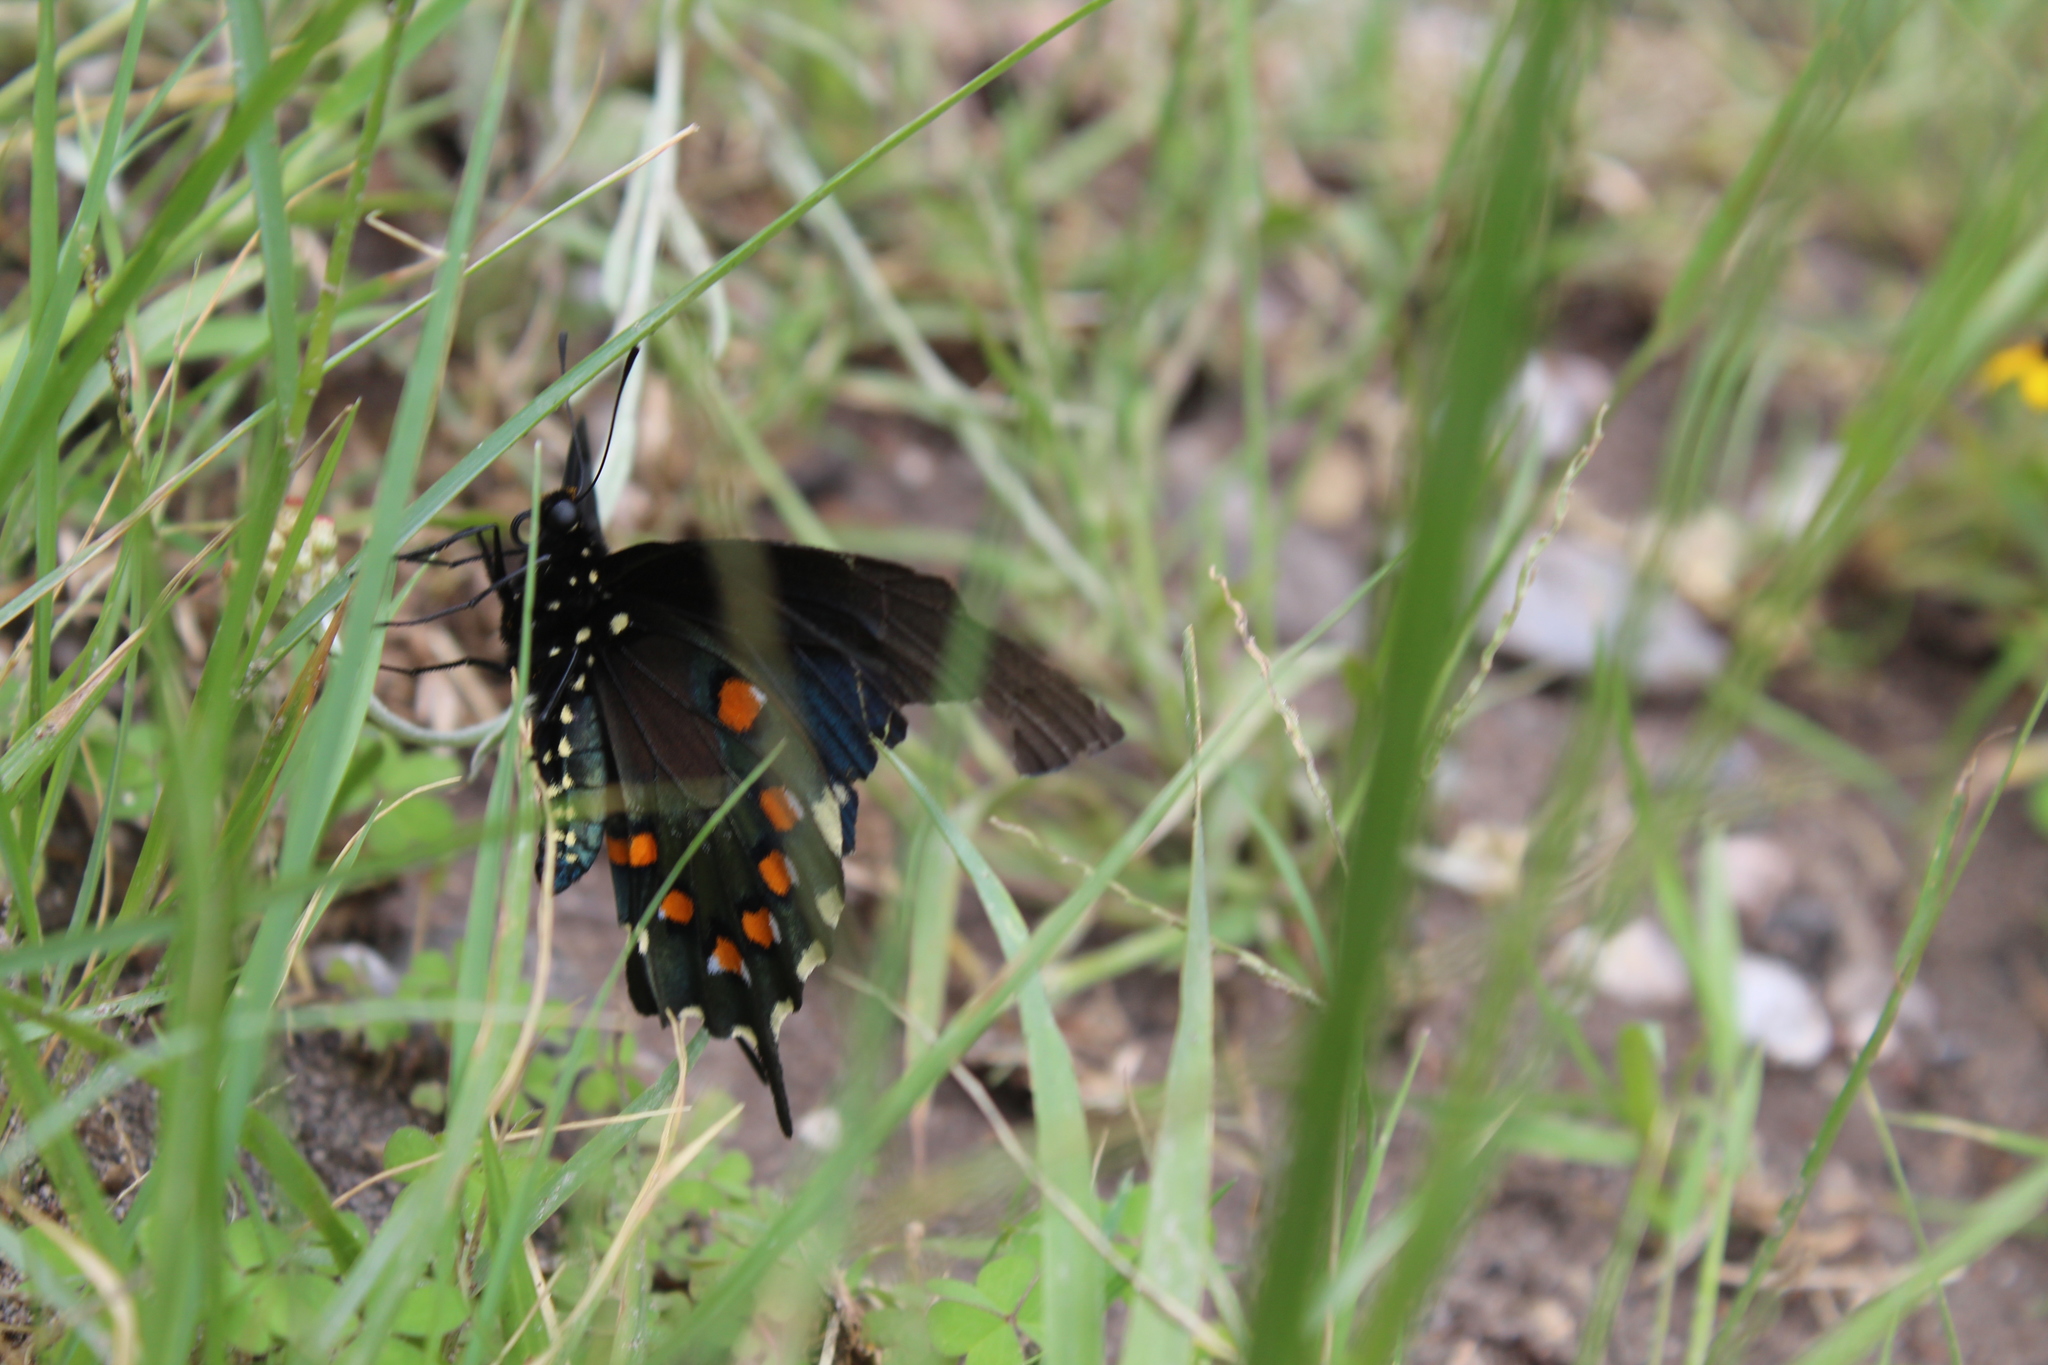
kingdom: Animalia
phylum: Arthropoda
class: Insecta
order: Lepidoptera
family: Papilionidae
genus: Battus
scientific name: Battus philenor
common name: Pipevine swallowtail
